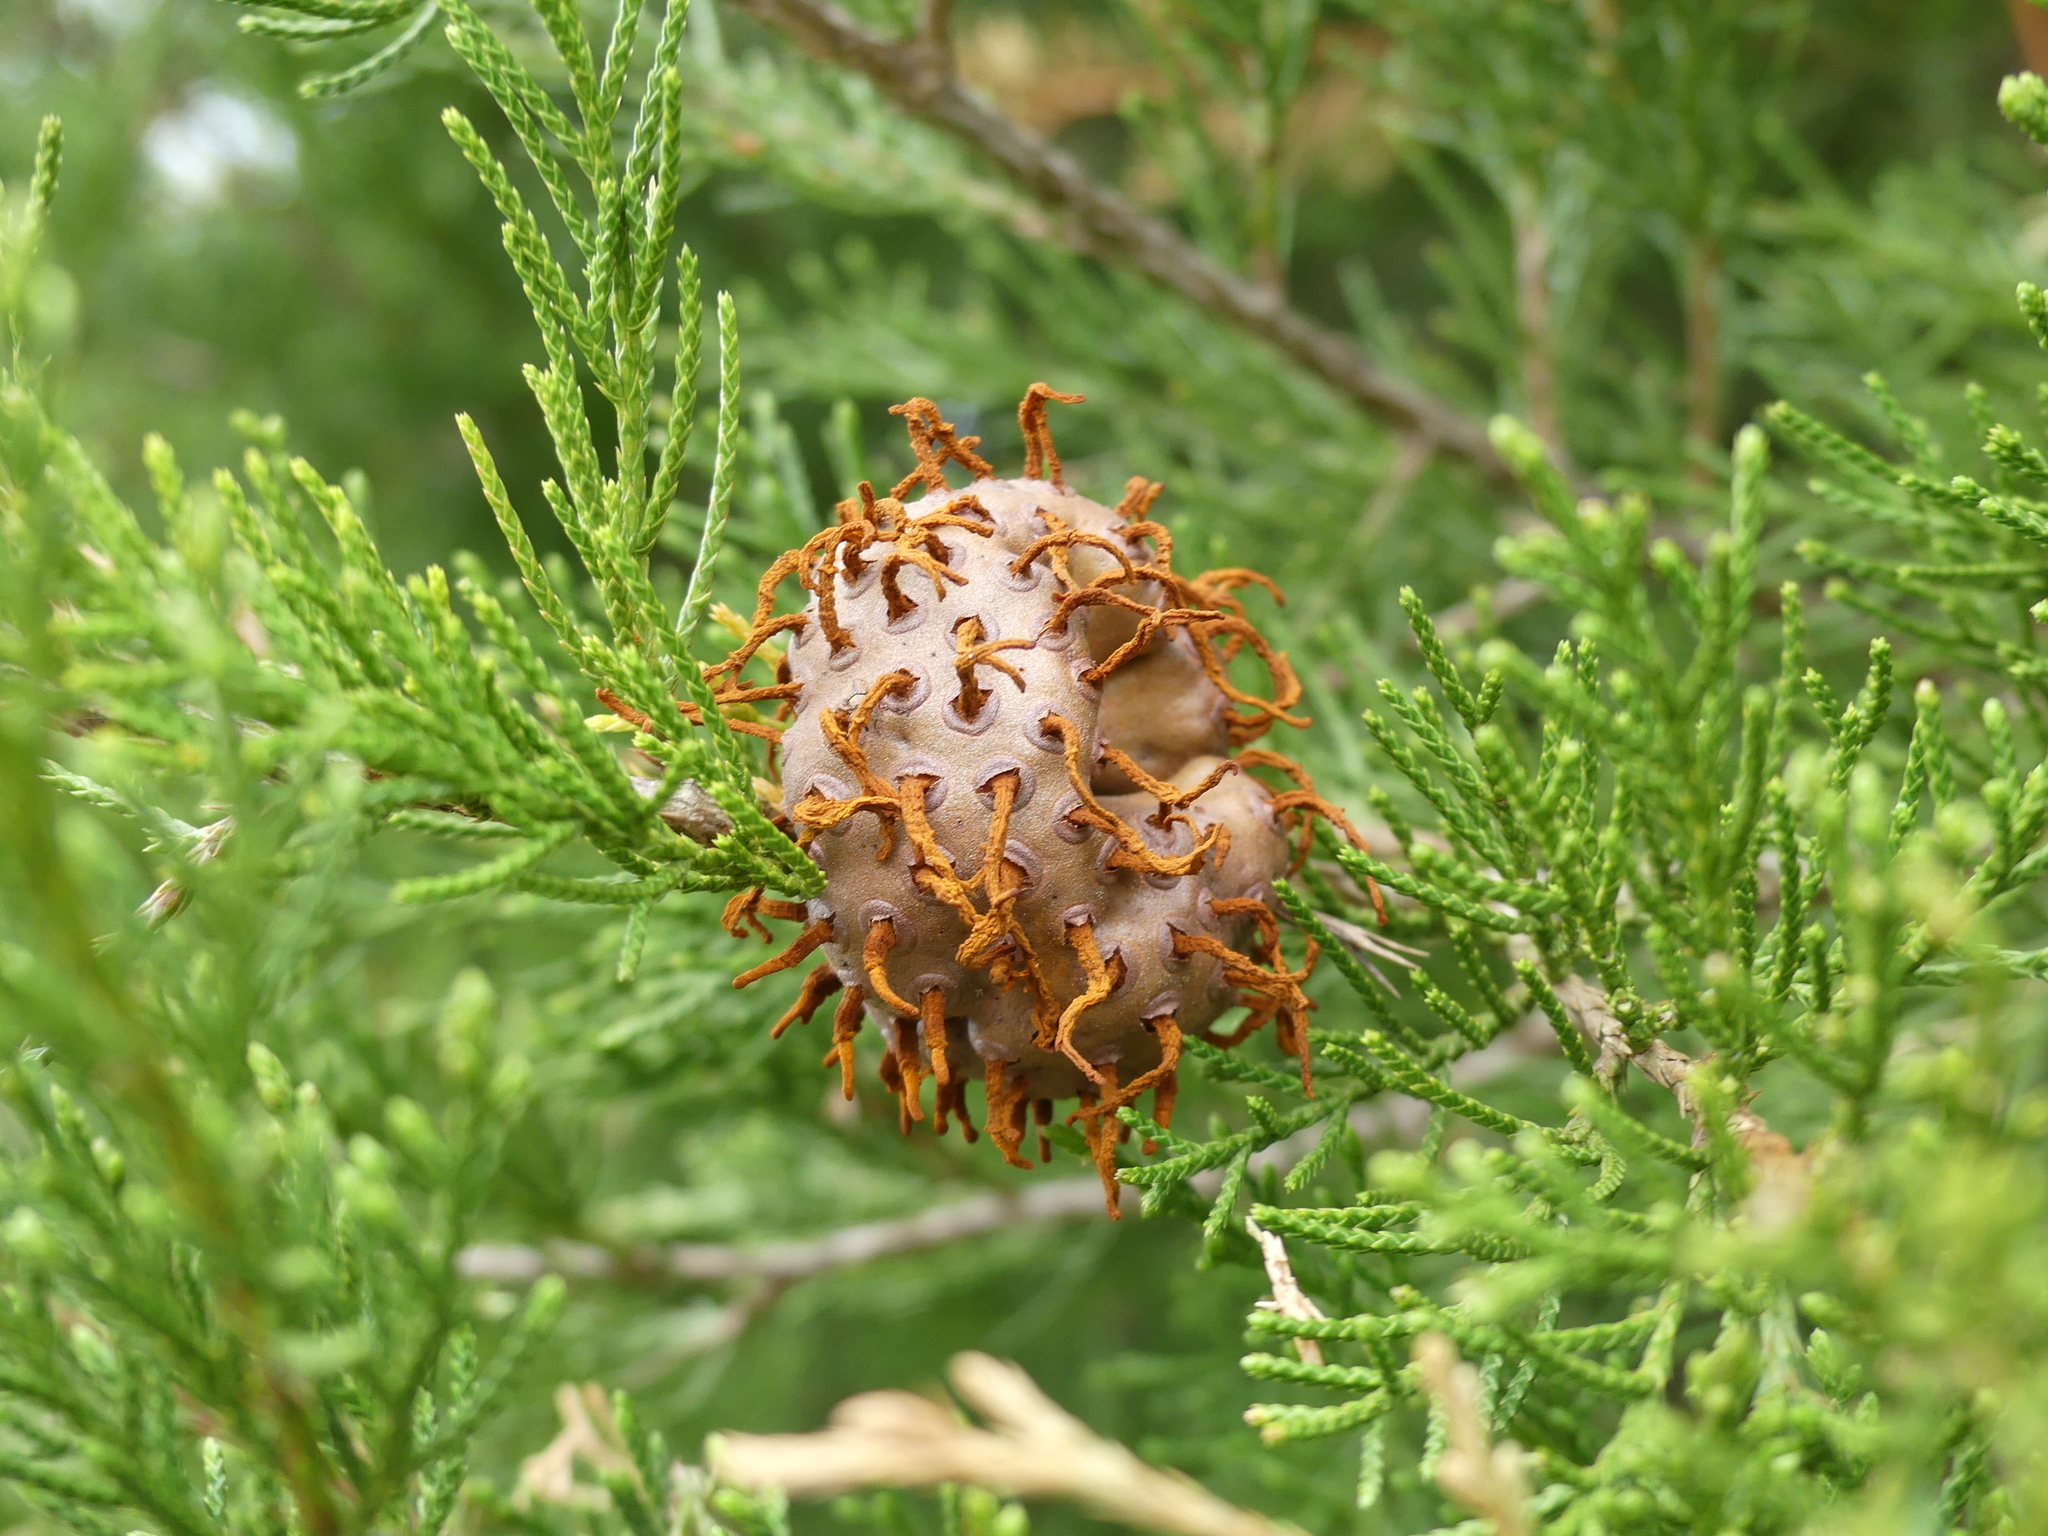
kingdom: Fungi
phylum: Basidiomycota
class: Pucciniomycetes
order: Pucciniales
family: Gymnosporangiaceae
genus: Gymnosporangium
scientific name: Gymnosporangium juniperi-virginianae
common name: Juniper-apple rust
